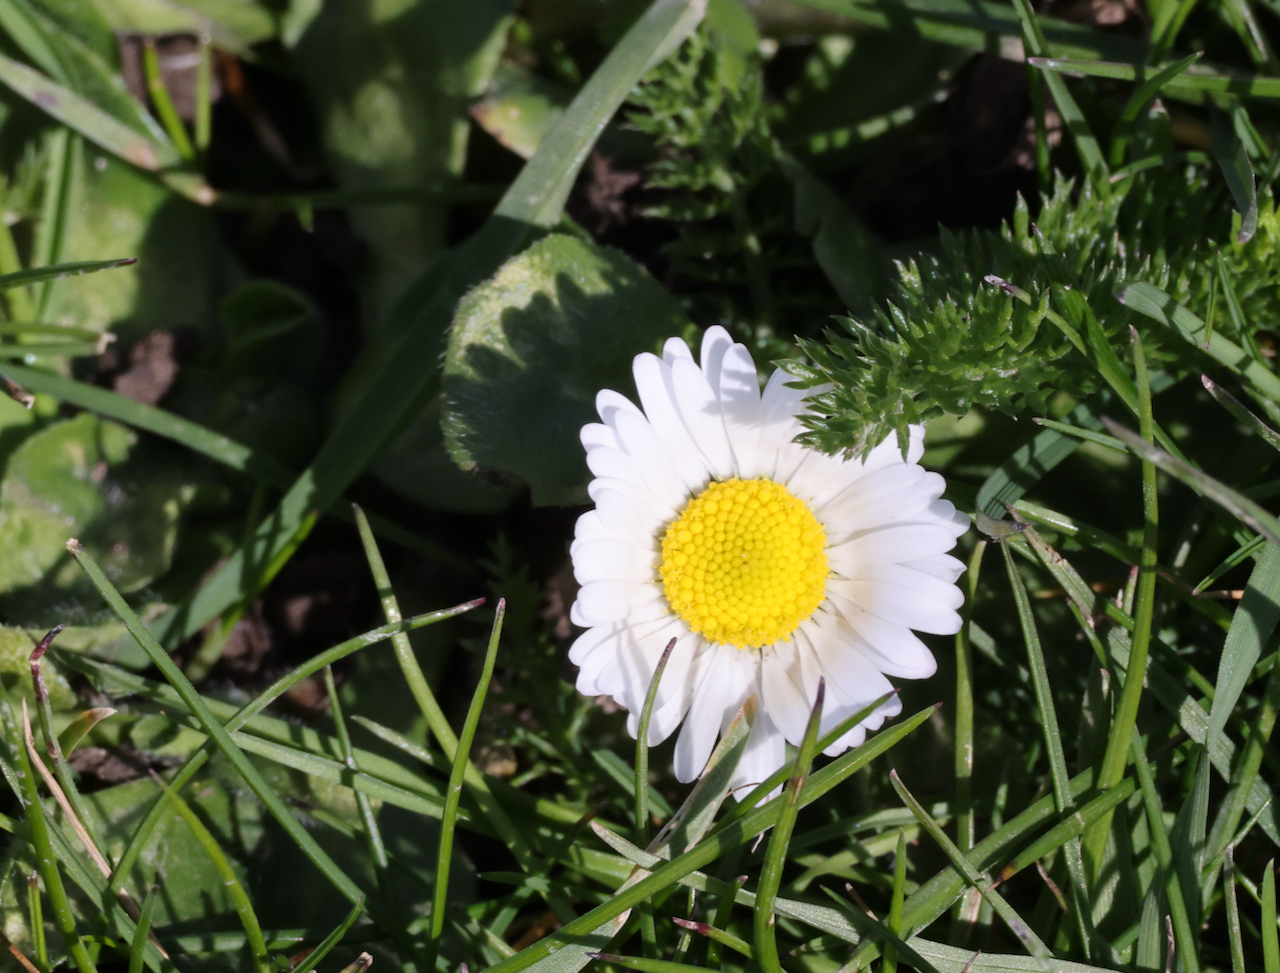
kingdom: Plantae
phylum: Tracheophyta
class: Magnoliopsida
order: Asterales
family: Asteraceae
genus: Bellis
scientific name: Bellis perennis
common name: Lawndaisy
